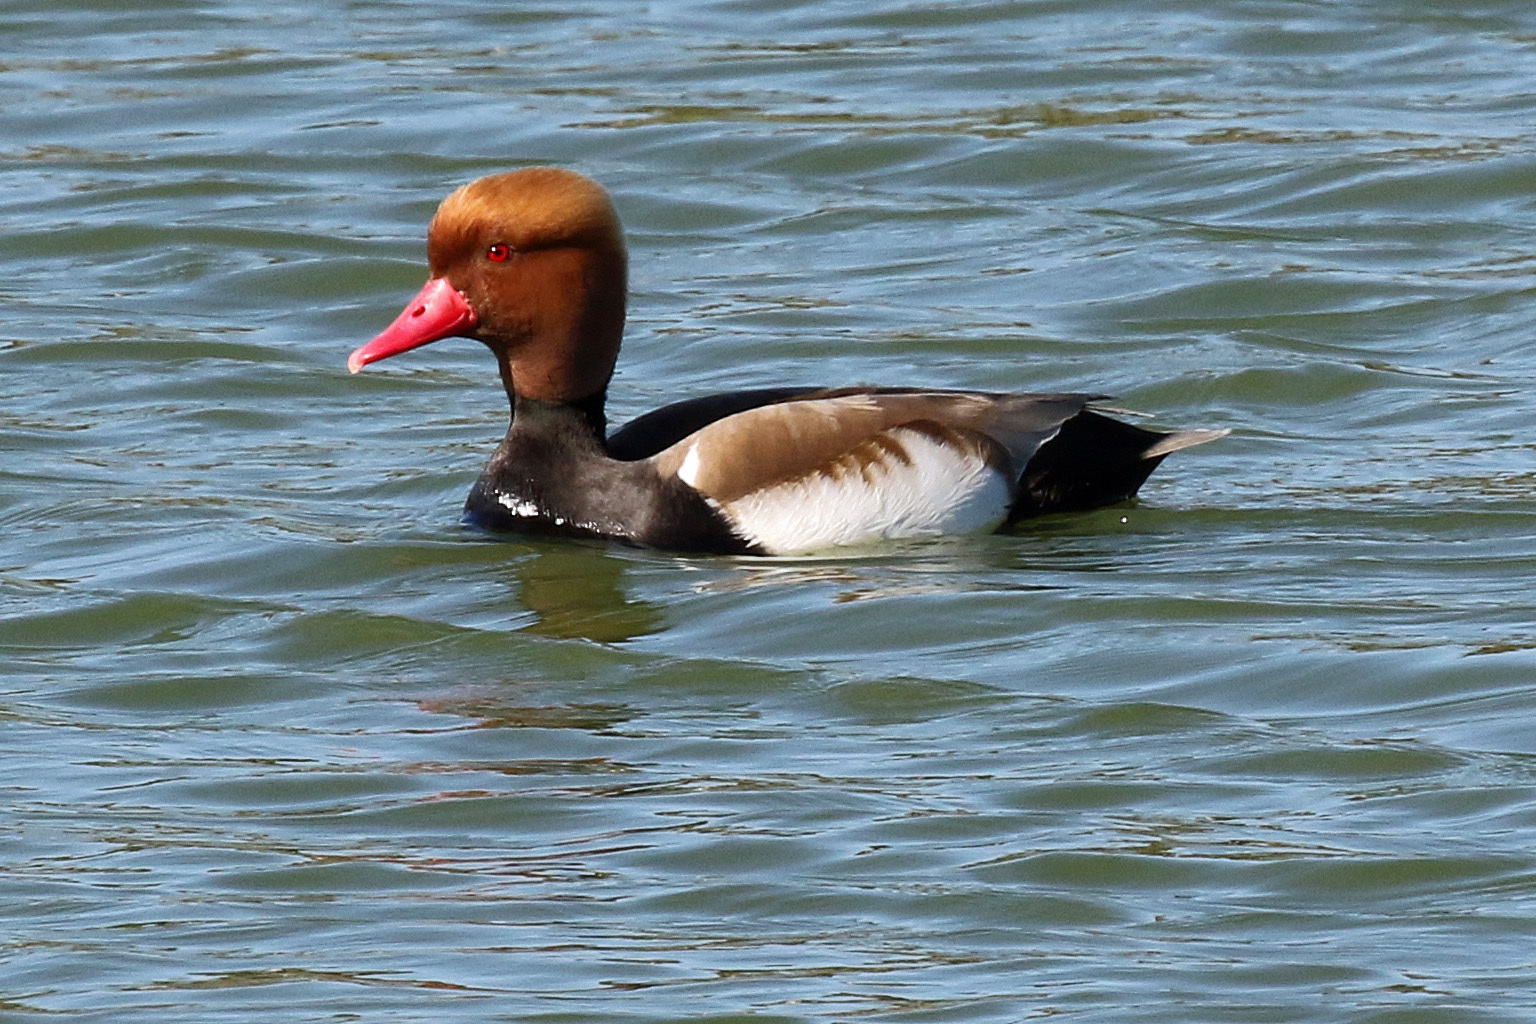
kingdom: Animalia
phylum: Chordata
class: Aves
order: Anseriformes
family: Anatidae
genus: Netta
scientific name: Netta rufina
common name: Red-crested pochard
